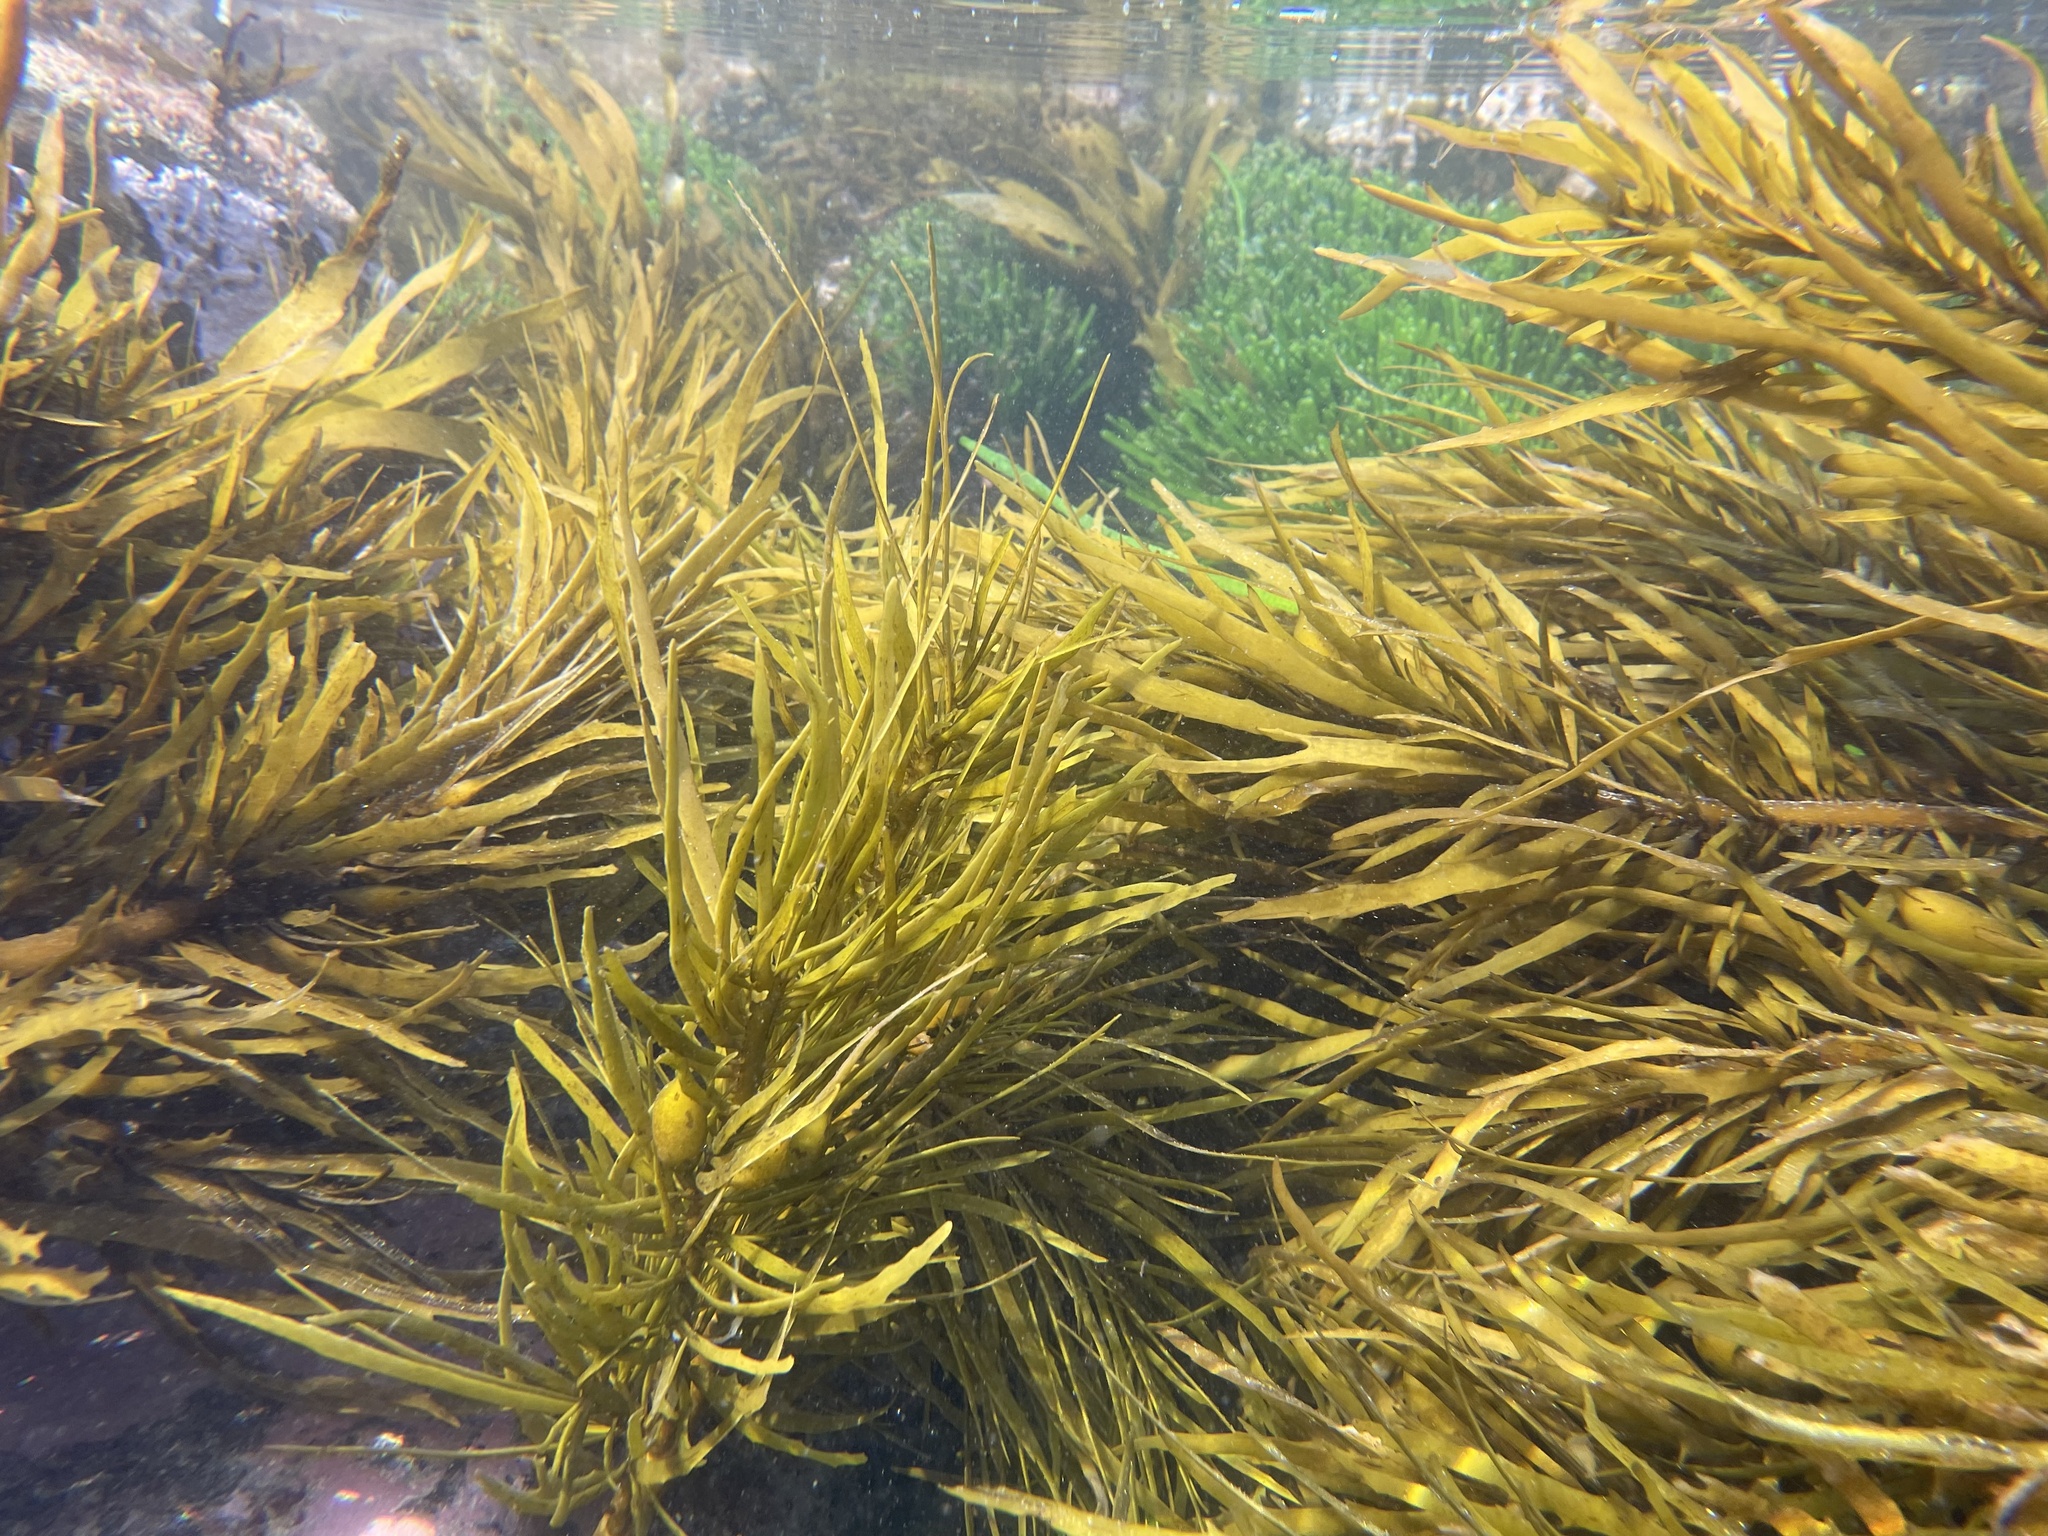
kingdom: Chromista
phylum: Ochrophyta
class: Phaeophyceae
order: Fucales
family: Seirococcaceae
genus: Phyllospora
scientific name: Phyllospora
